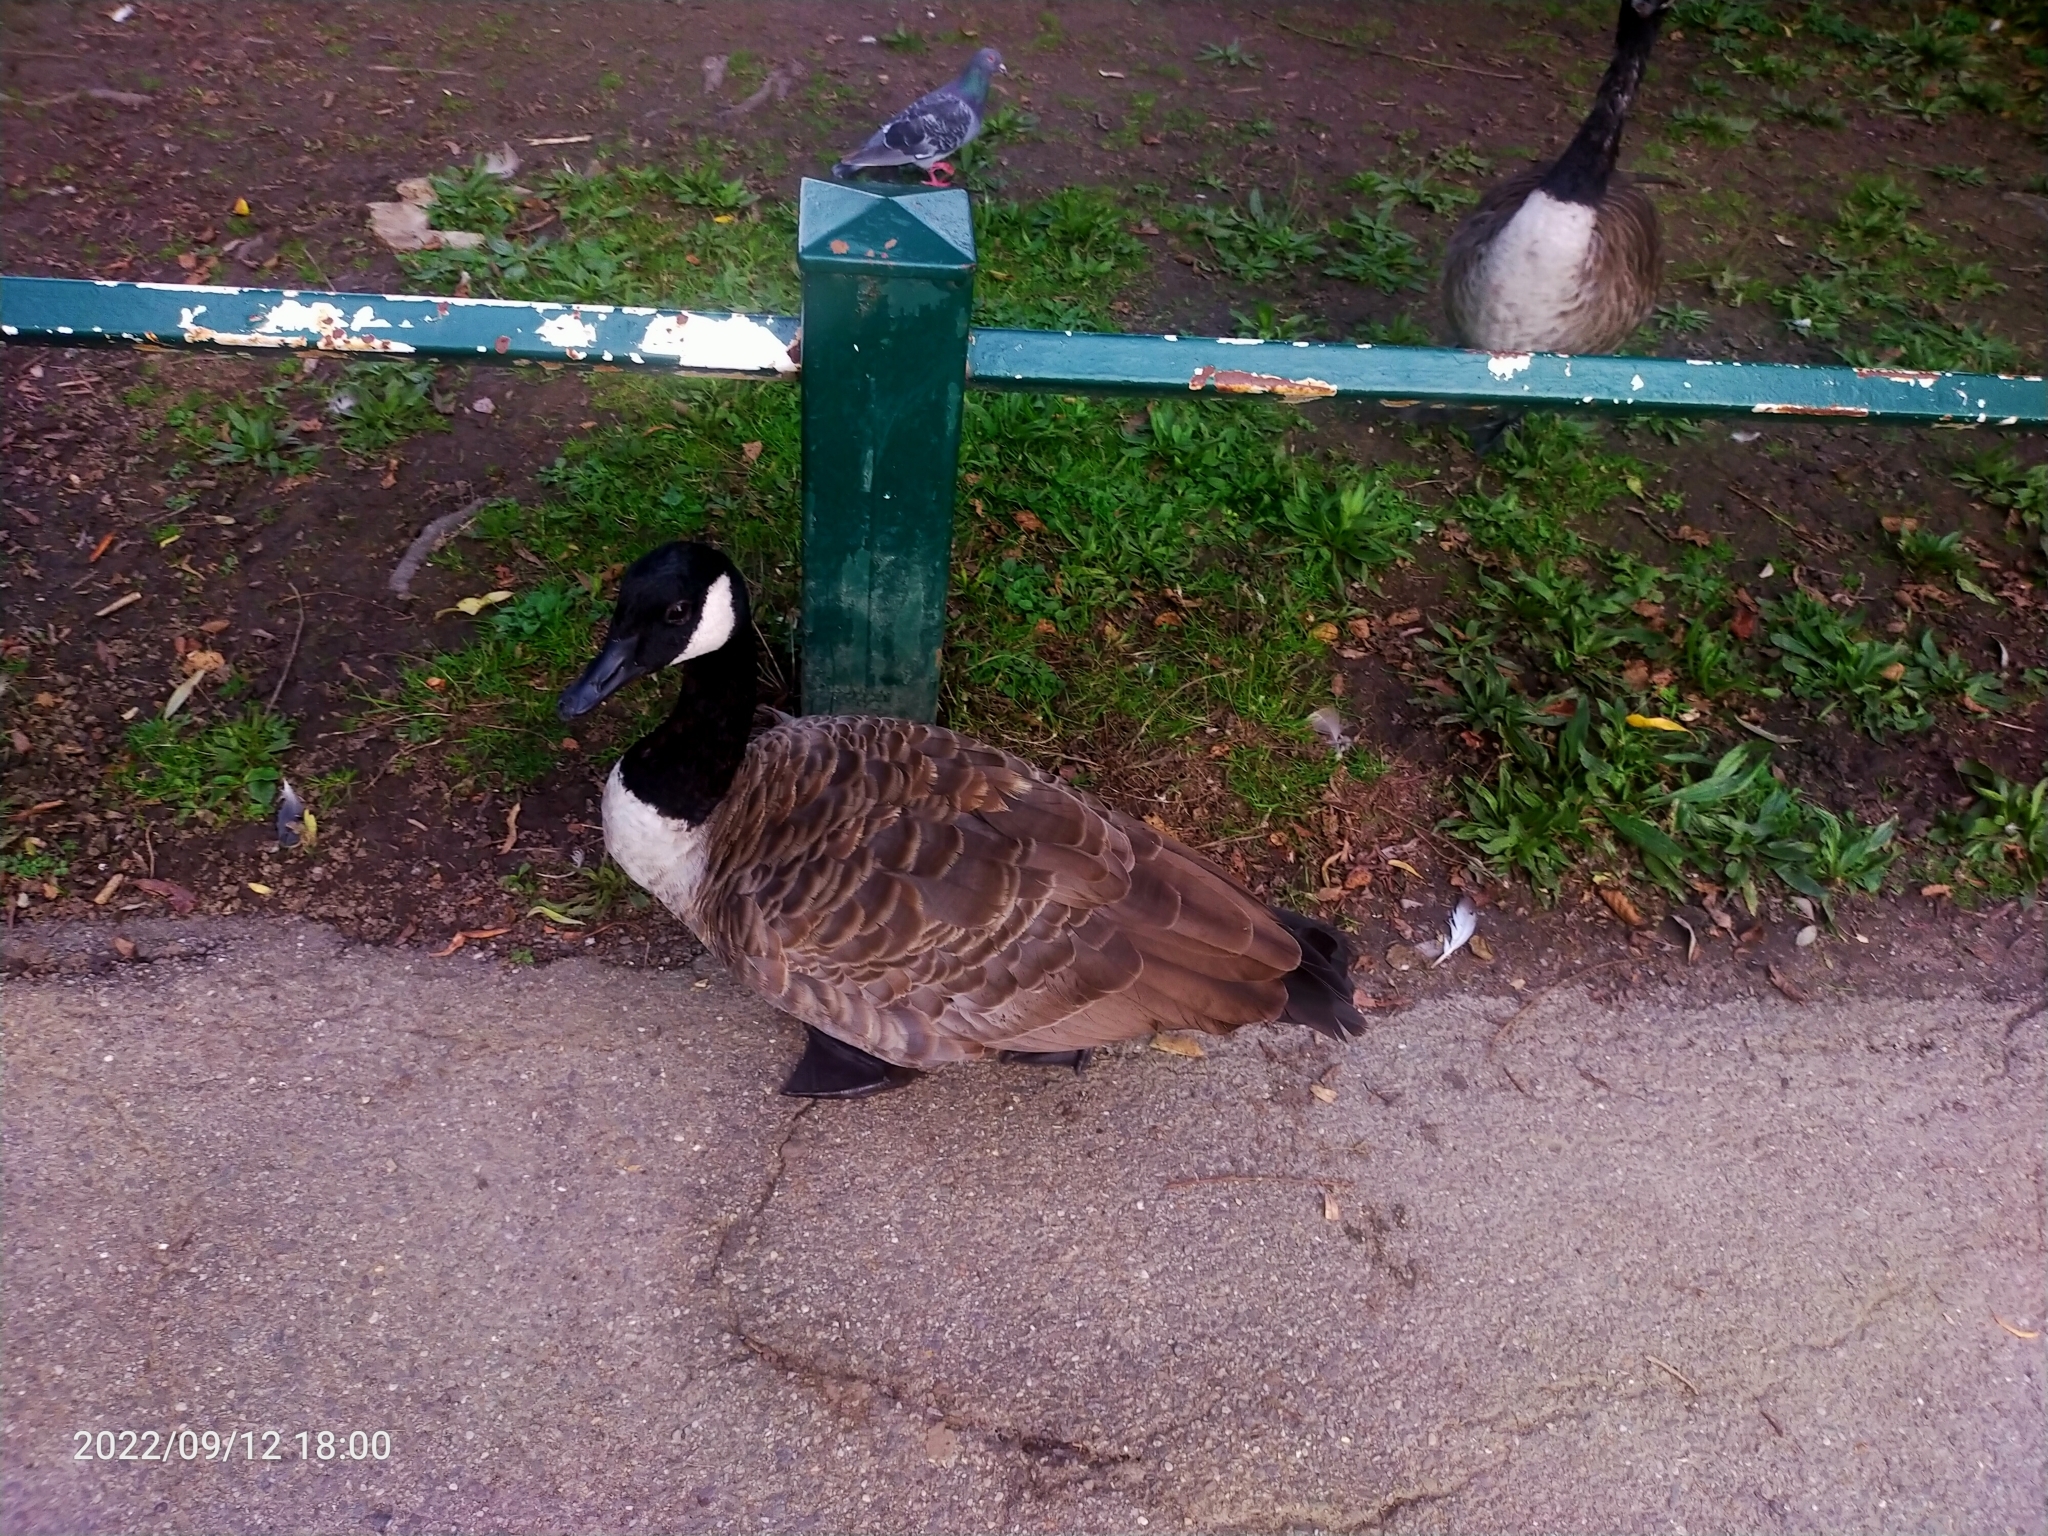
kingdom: Animalia
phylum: Chordata
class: Aves
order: Anseriformes
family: Anatidae
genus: Branta
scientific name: Branta canadensis
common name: Canada goose
